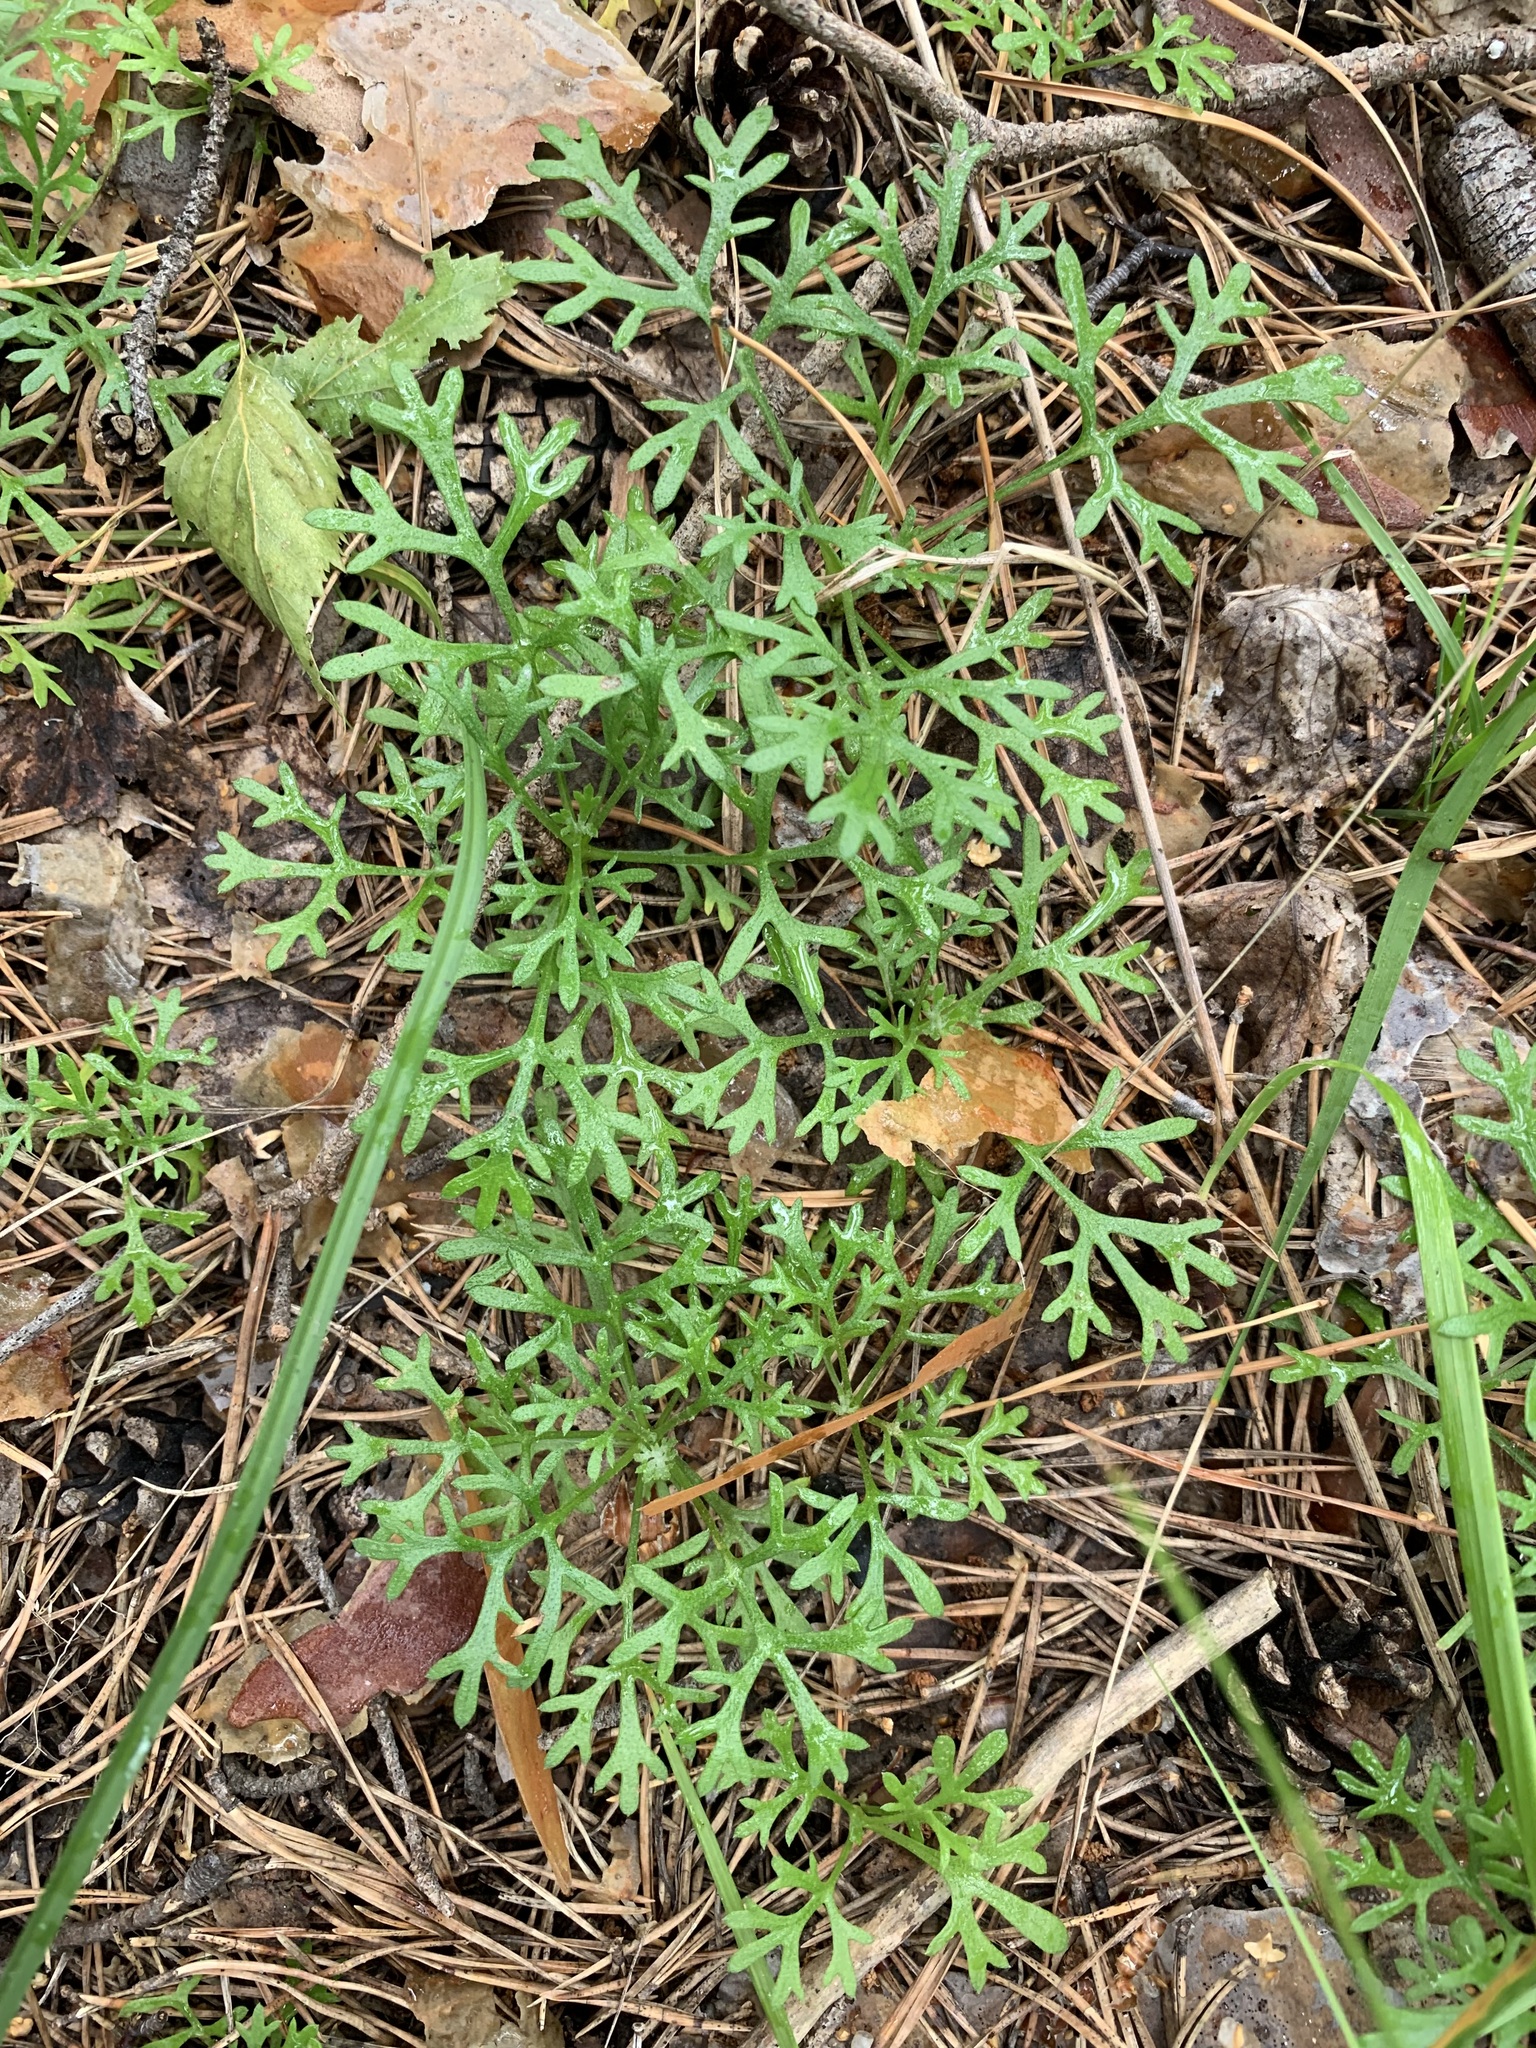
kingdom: Plantae
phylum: Tracheophyta
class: Magnoliopsida
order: Asterales
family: Asteraceae
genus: Chrysanthemum
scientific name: Chrysanthemum zawadzkii
